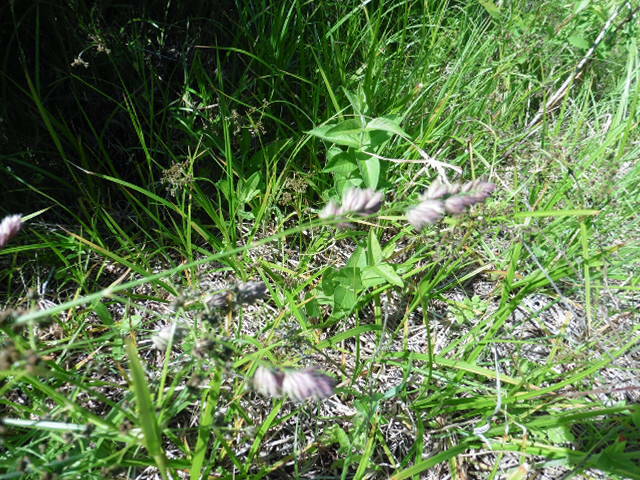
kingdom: Plantae
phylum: Tracheophyta
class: Liliopsida
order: Poales
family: Poaceae
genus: Dactylis
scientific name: Dactylis glomerata
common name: Orchardgrass
